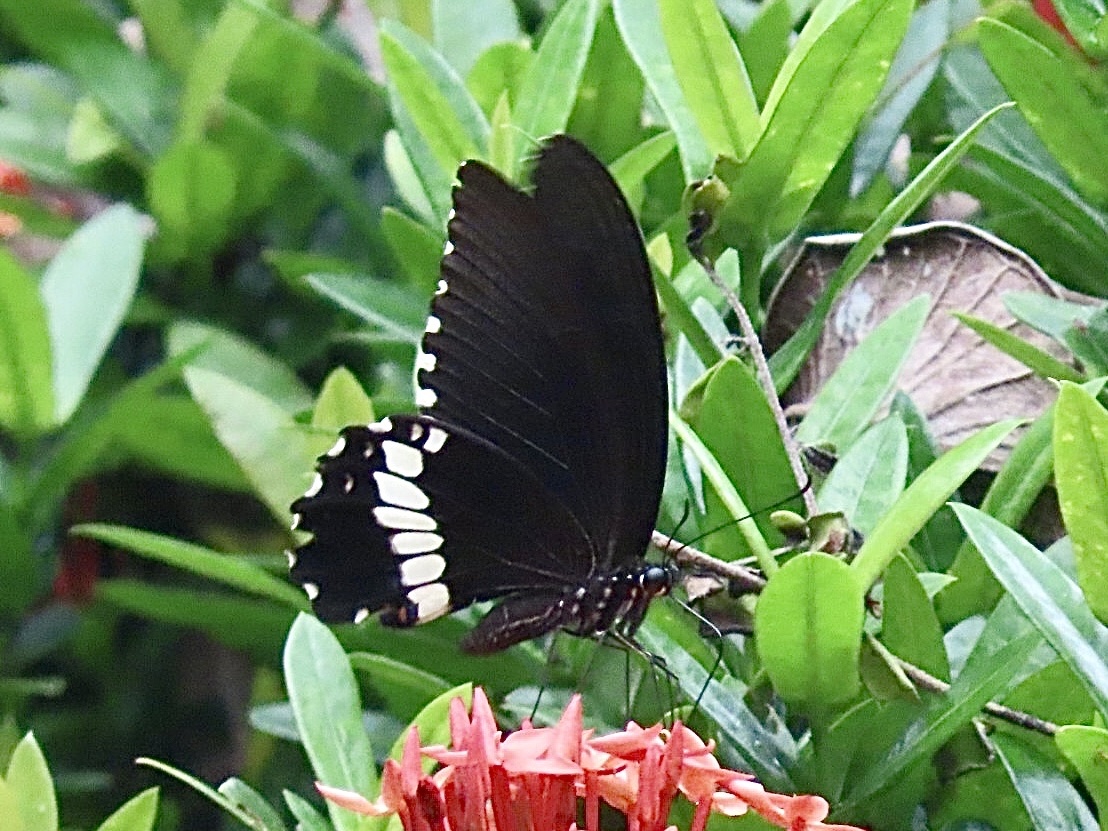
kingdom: Animalia
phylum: Arthropoda
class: Insecta
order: Lepidoptera
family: Papilionidae
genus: Papilio
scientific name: Papilio polytes
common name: Common mormon
